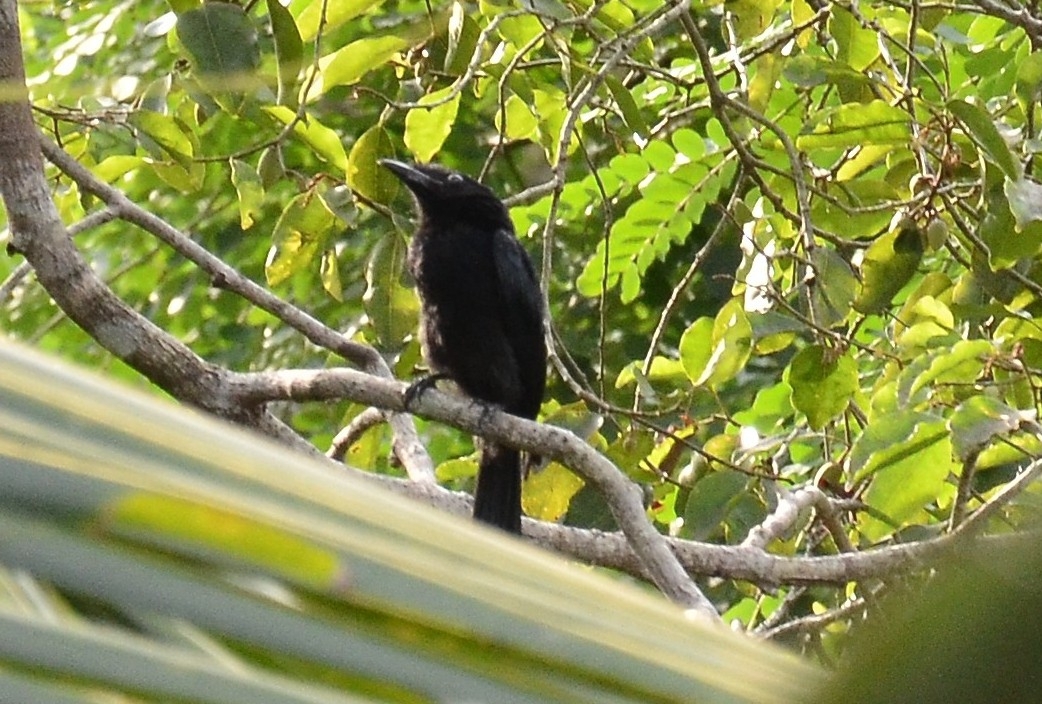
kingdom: Animalia
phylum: Chordata
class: Aves
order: Passeriformes
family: Dicruridae
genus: Dicrurus
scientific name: Dicrurus paradiseus
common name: Greater racket-tailed drongo
